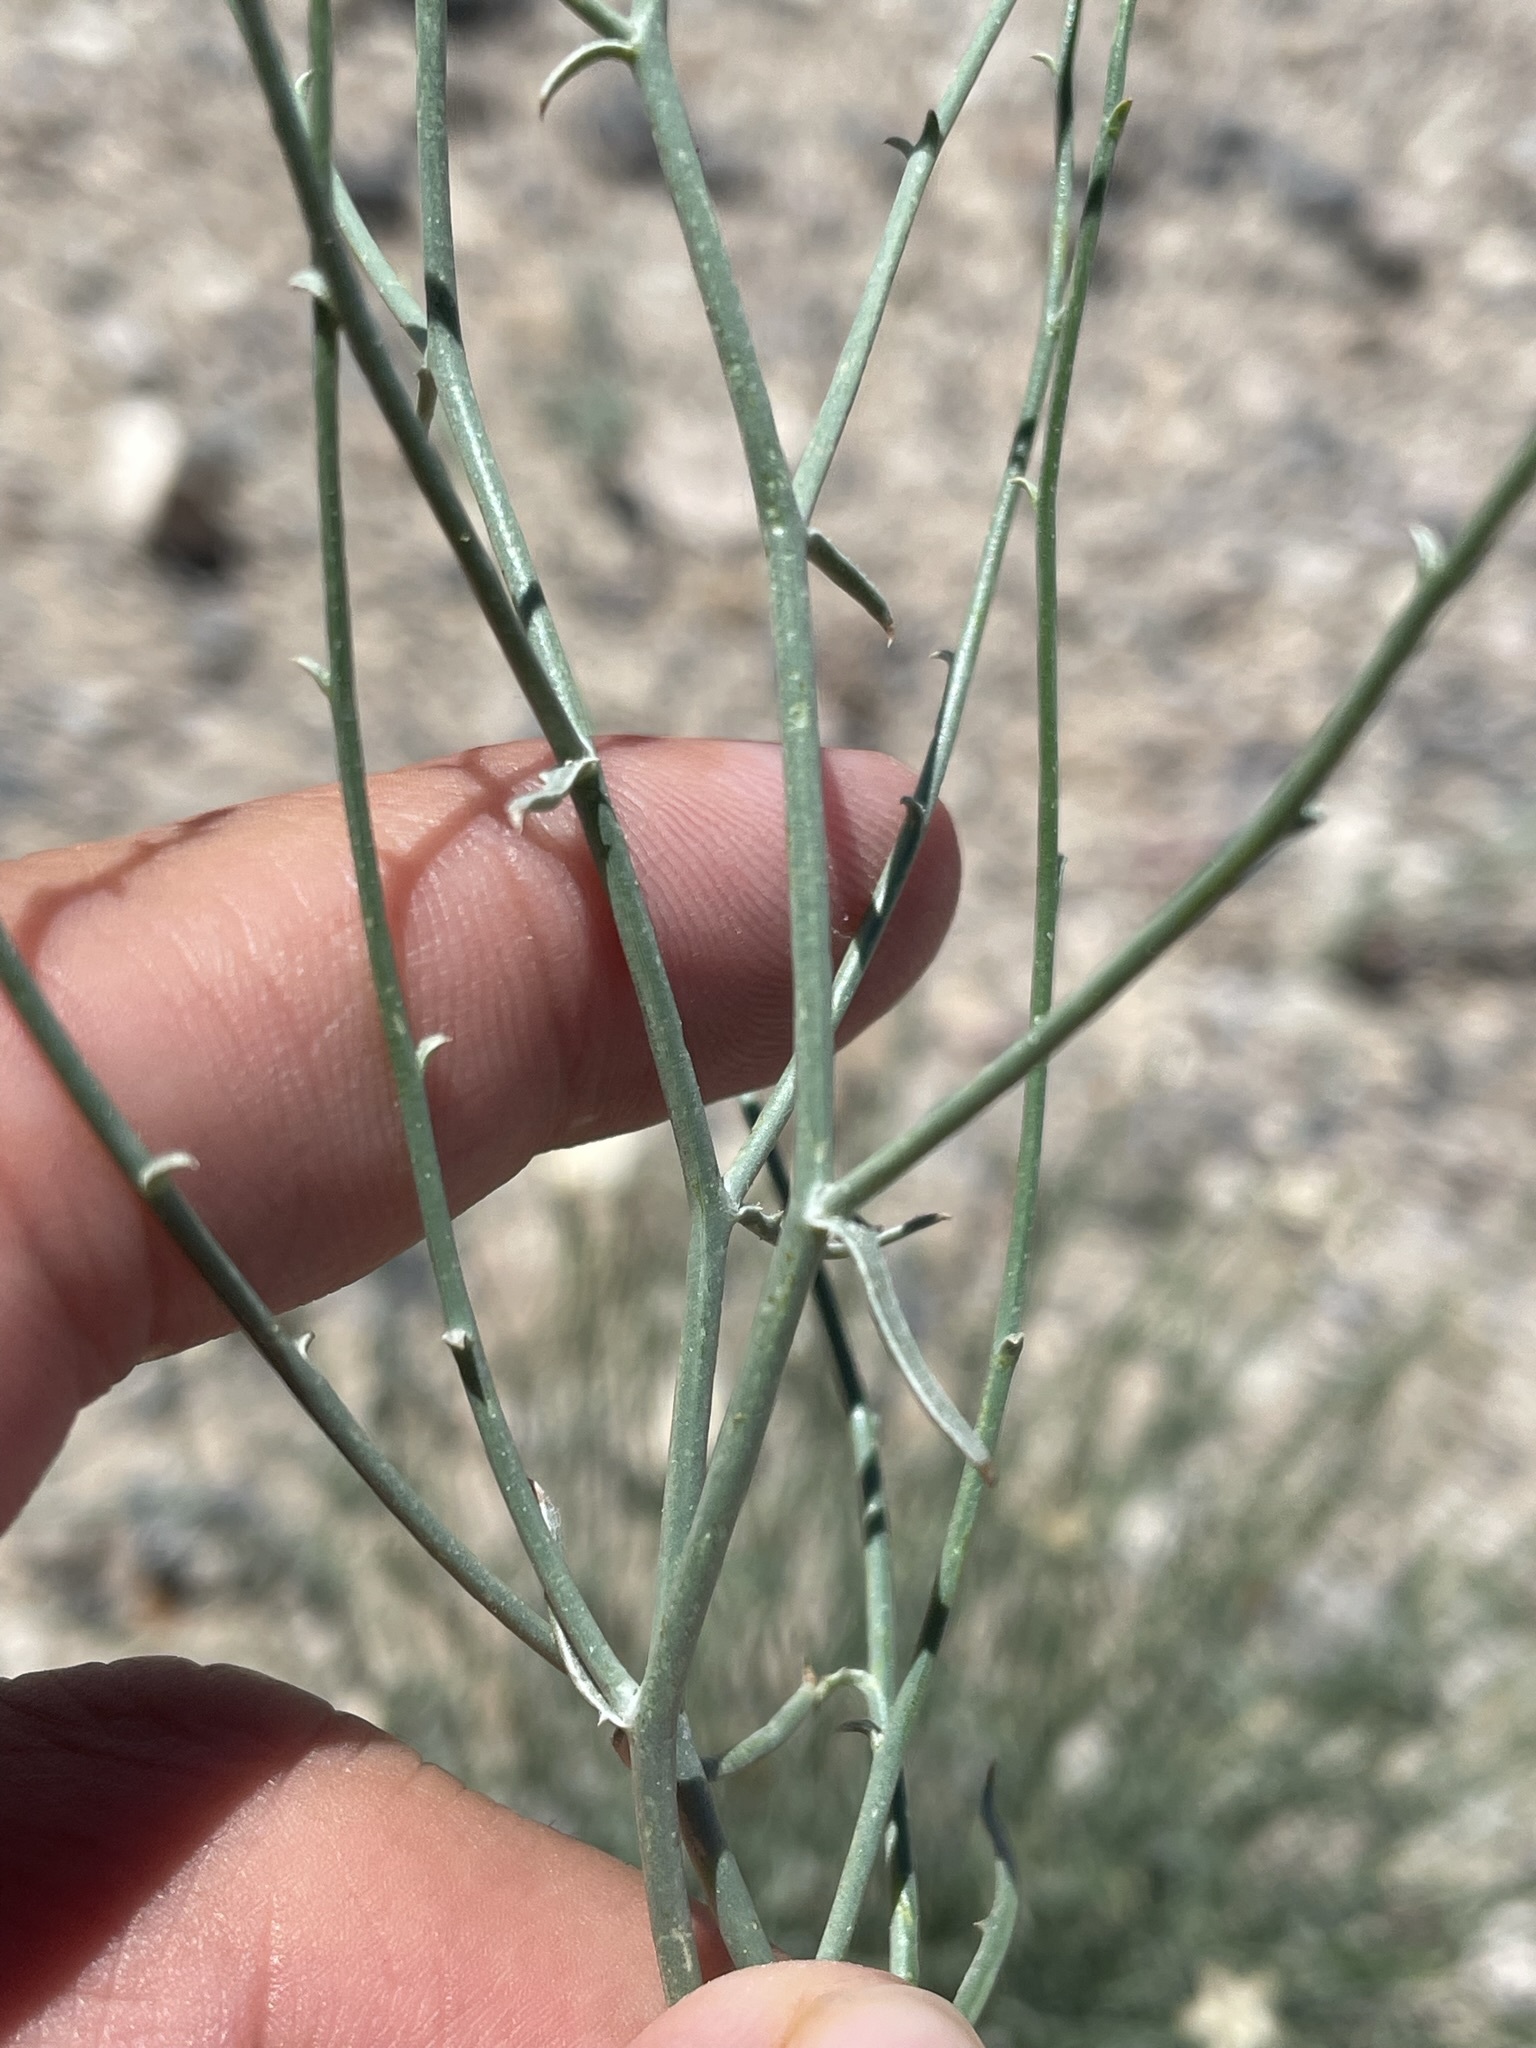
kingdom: Plantae
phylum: Tracheophyta
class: Magnoliopsida
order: Asterales
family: Asteraceae
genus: Stephanomeria
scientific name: Stephanomeria pauciflora
